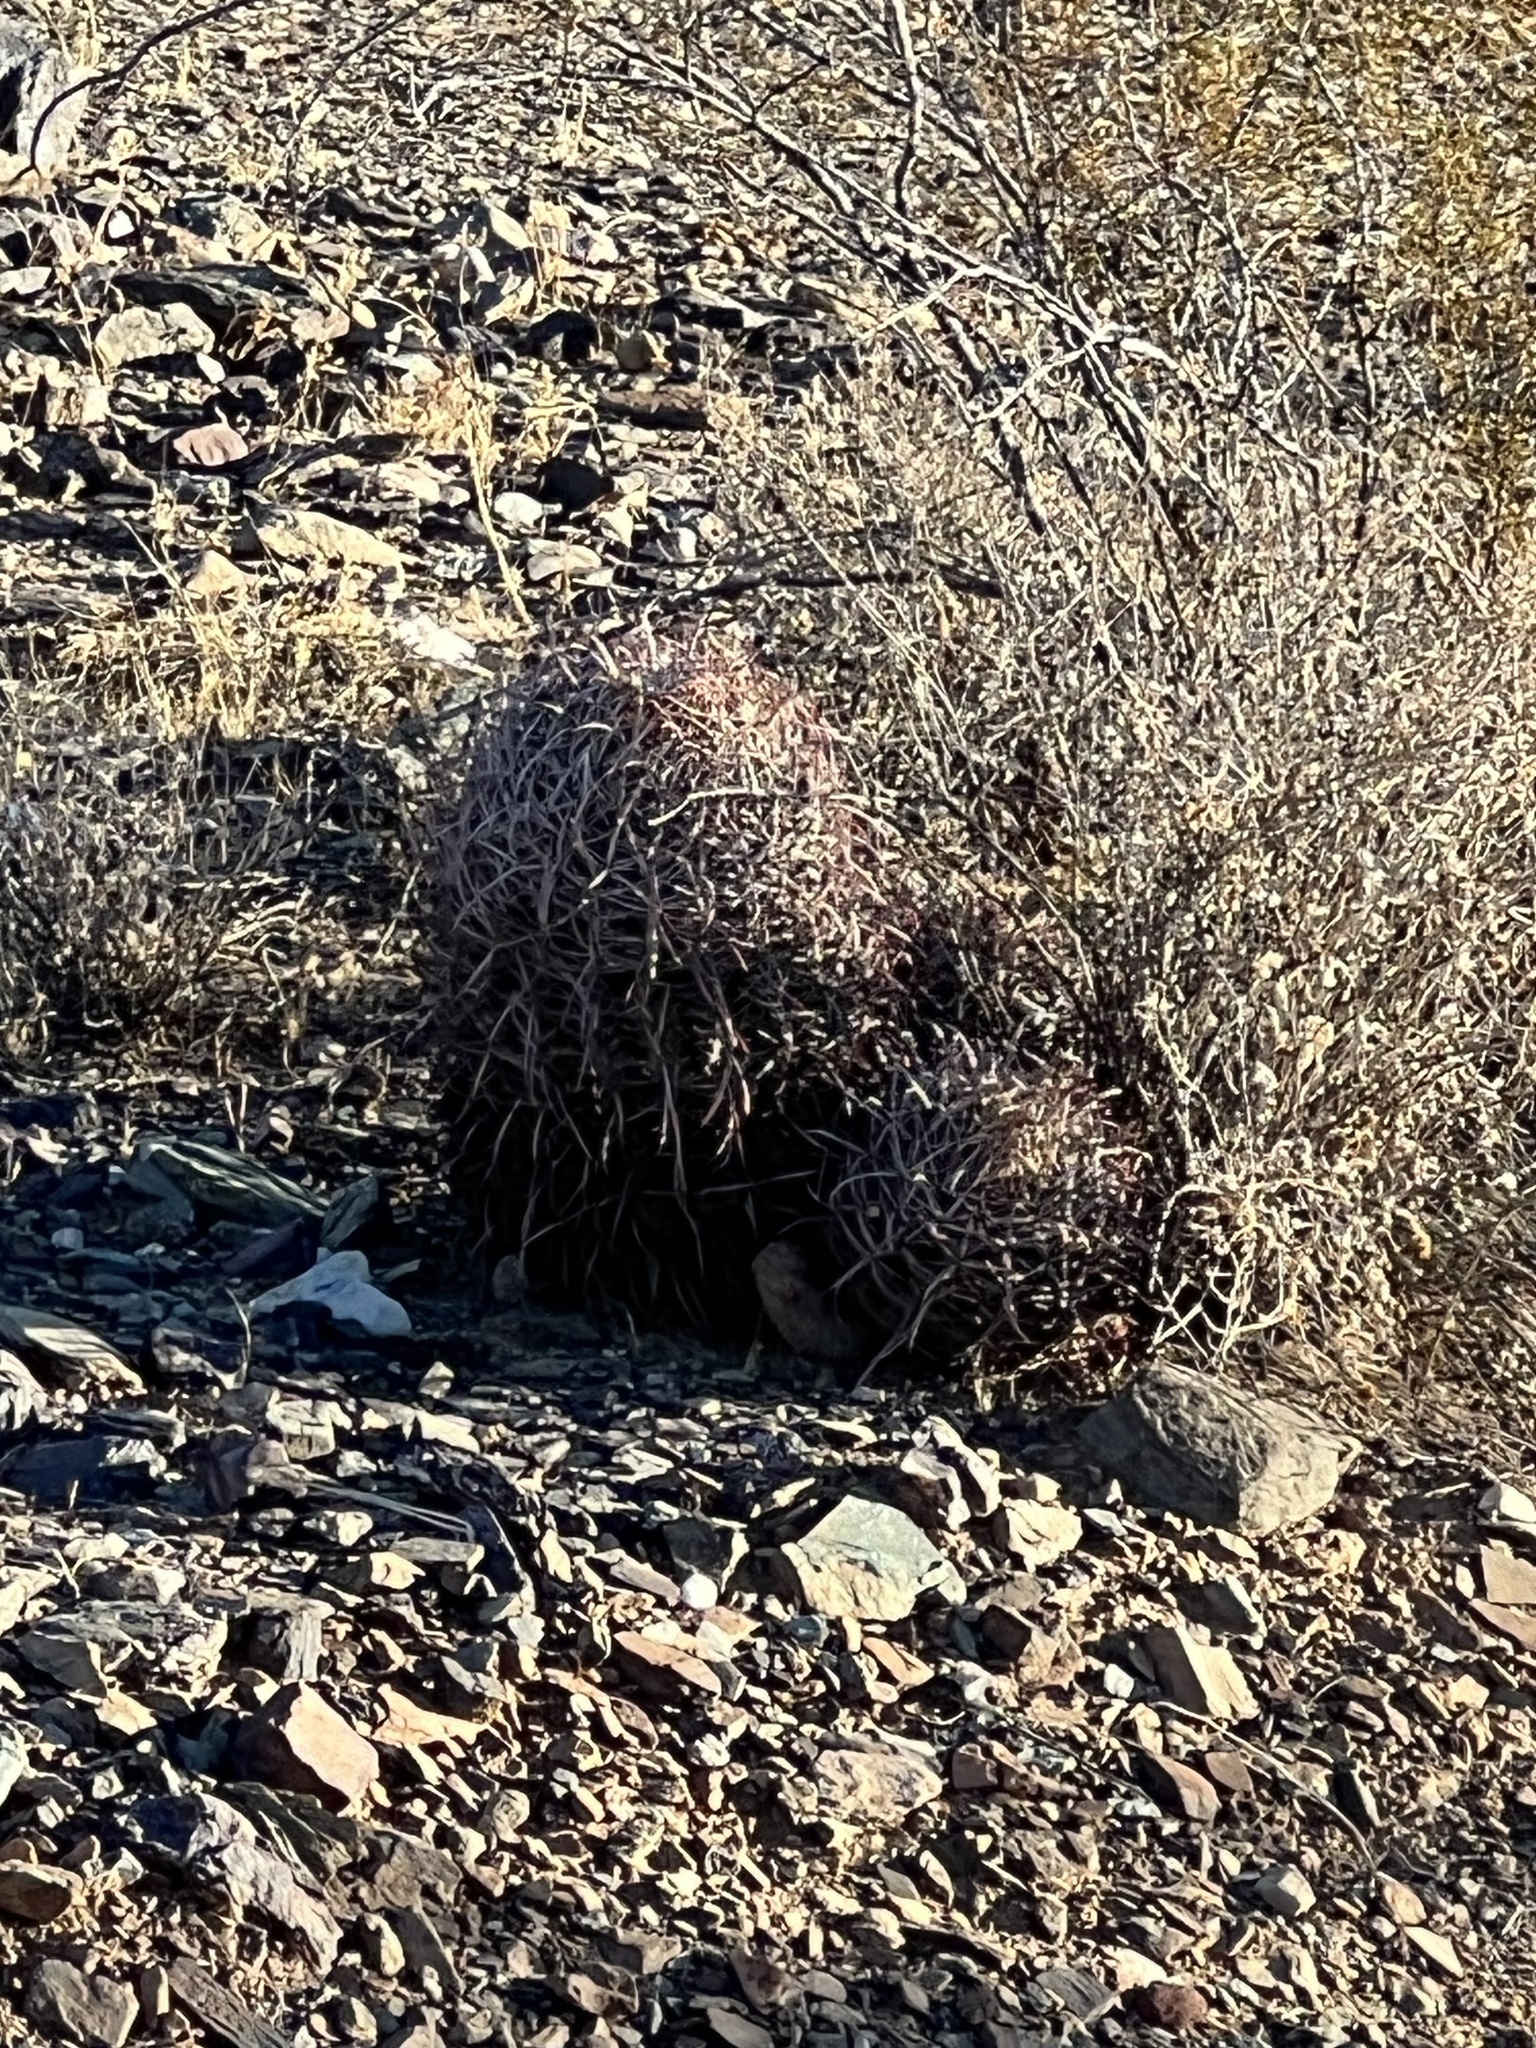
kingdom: Plantae
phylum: Tracheophyta
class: Magnoliopsida
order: Caryophyllales
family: Cactaceae
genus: Ferocactus
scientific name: Ferocactus cylindraceus
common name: California barrel cactus
